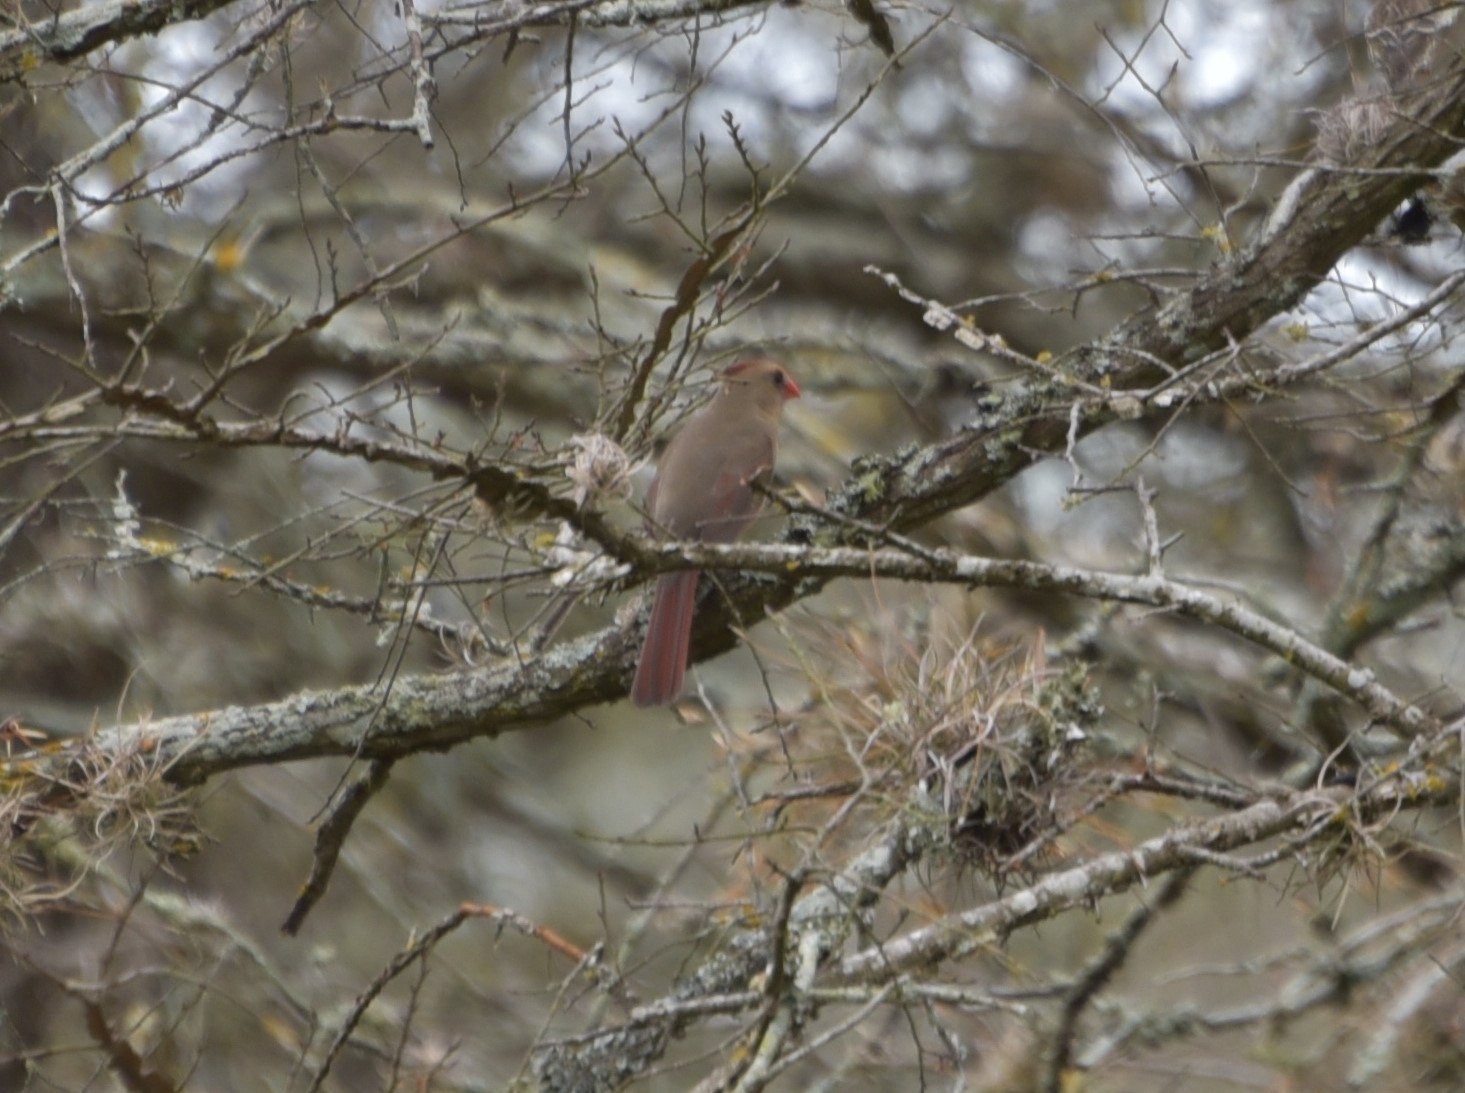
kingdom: Animalia
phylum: Chordata
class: Aves
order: Passeriformes
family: Cardinalidae
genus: Cardinalis
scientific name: Cardinalis cardinalis
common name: Northern cardinal
